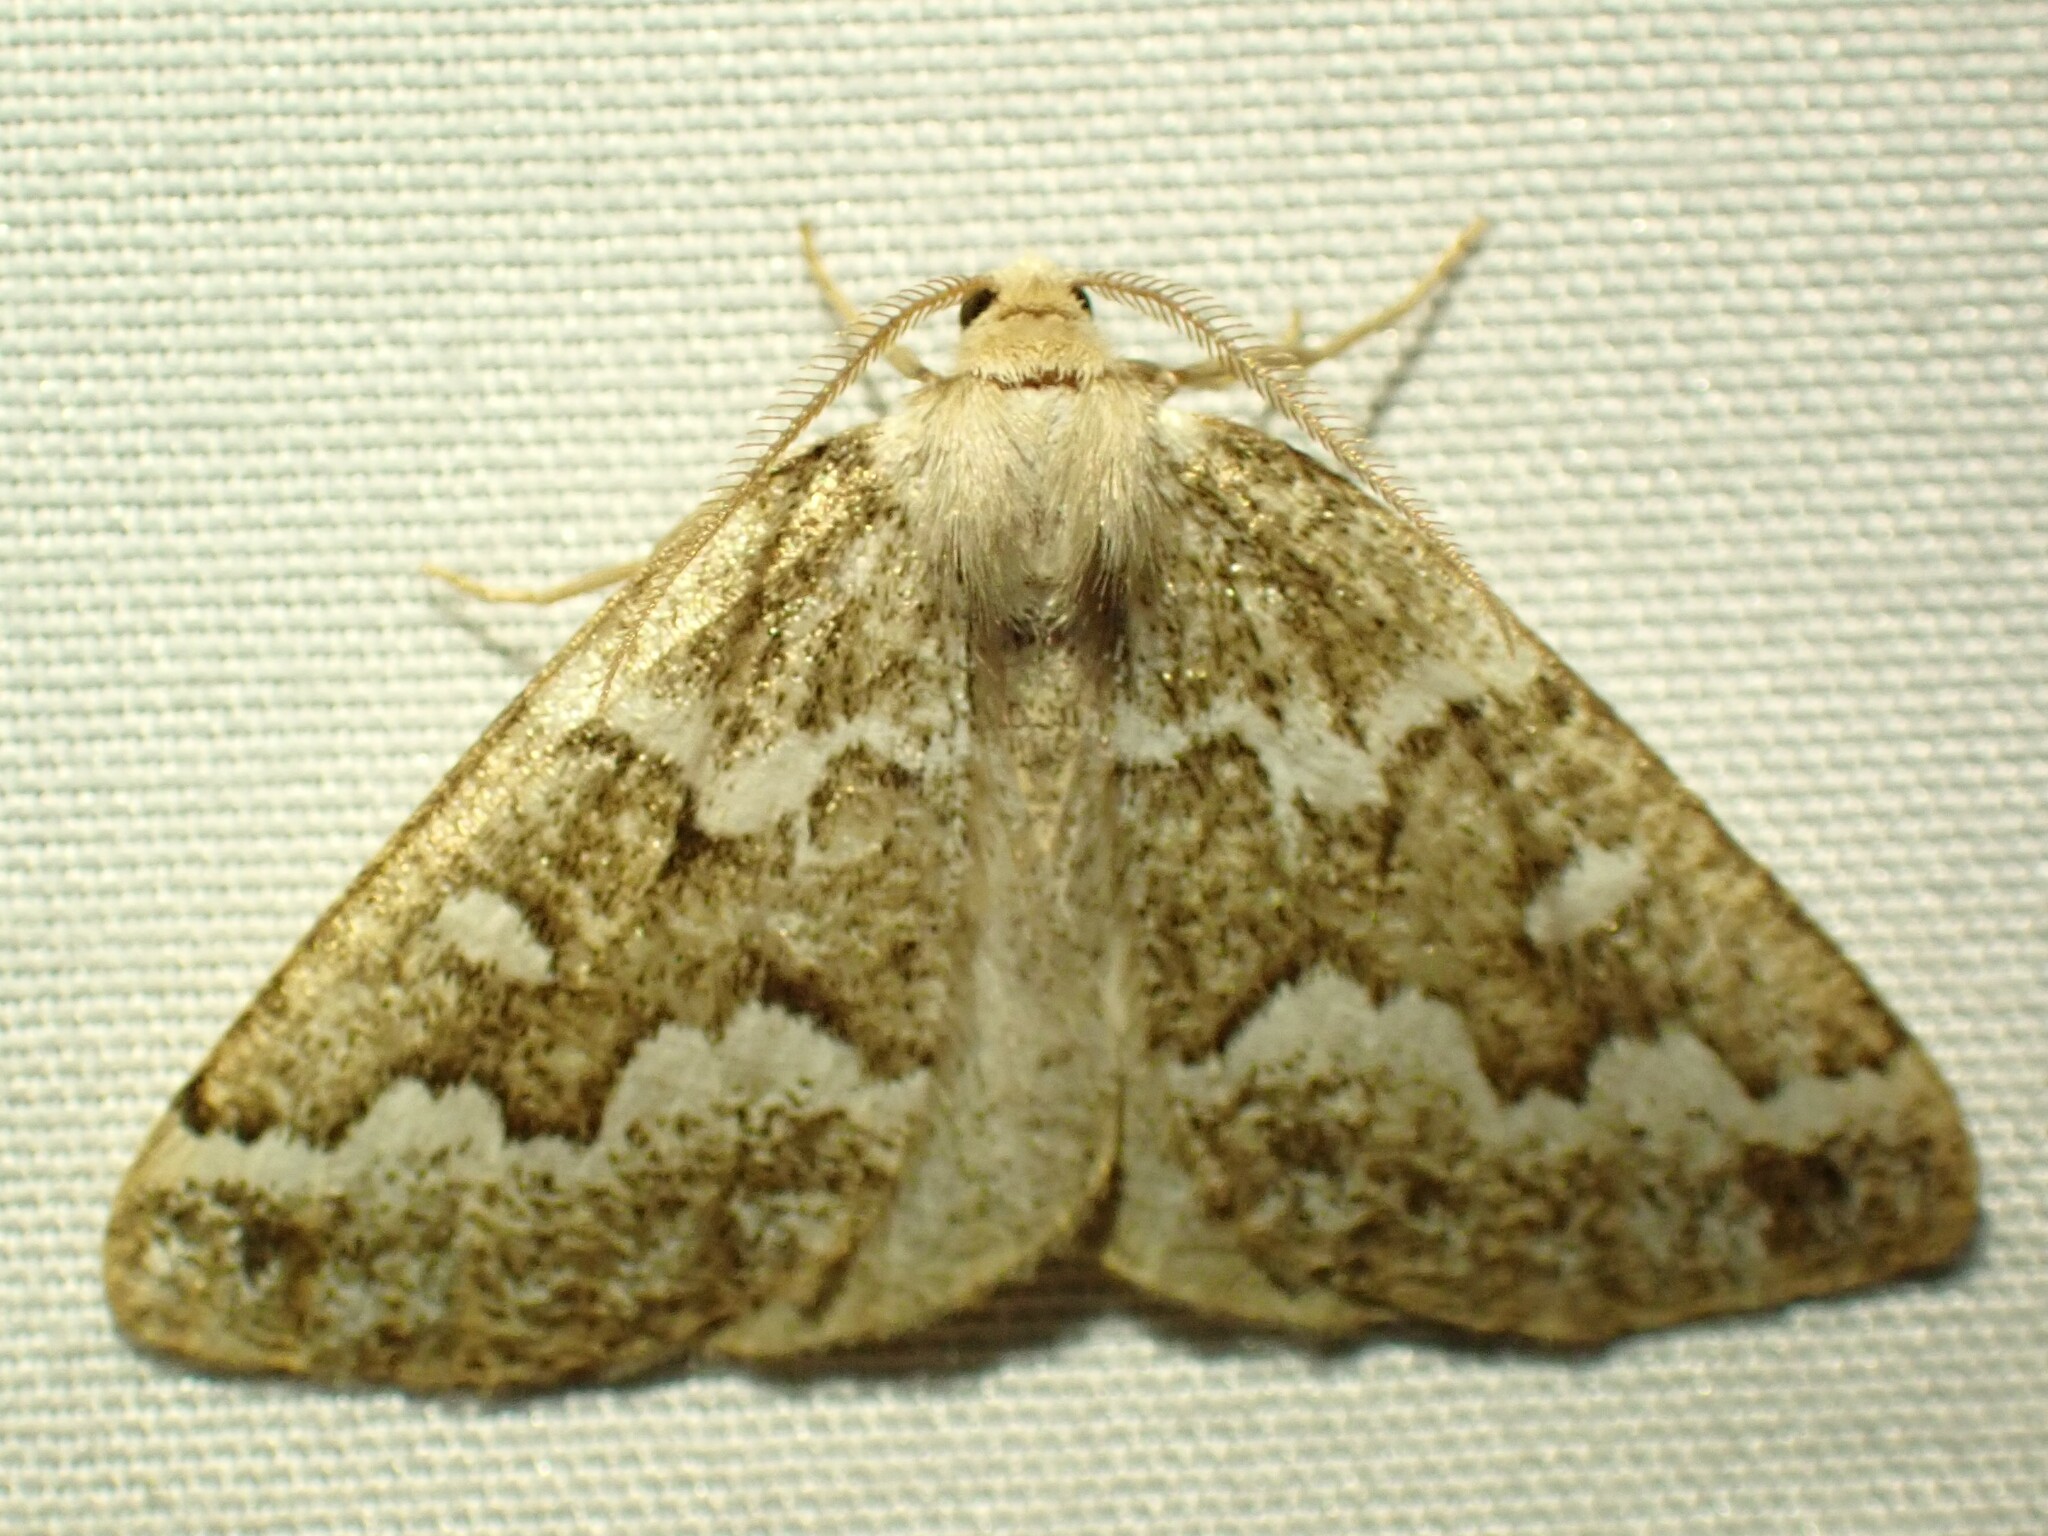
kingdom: Animalia
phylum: Arthropoda
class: Insecta
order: Lepidoptera
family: Geometridae
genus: Caripeta
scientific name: Caripeta divisata
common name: Gray spruce looper
